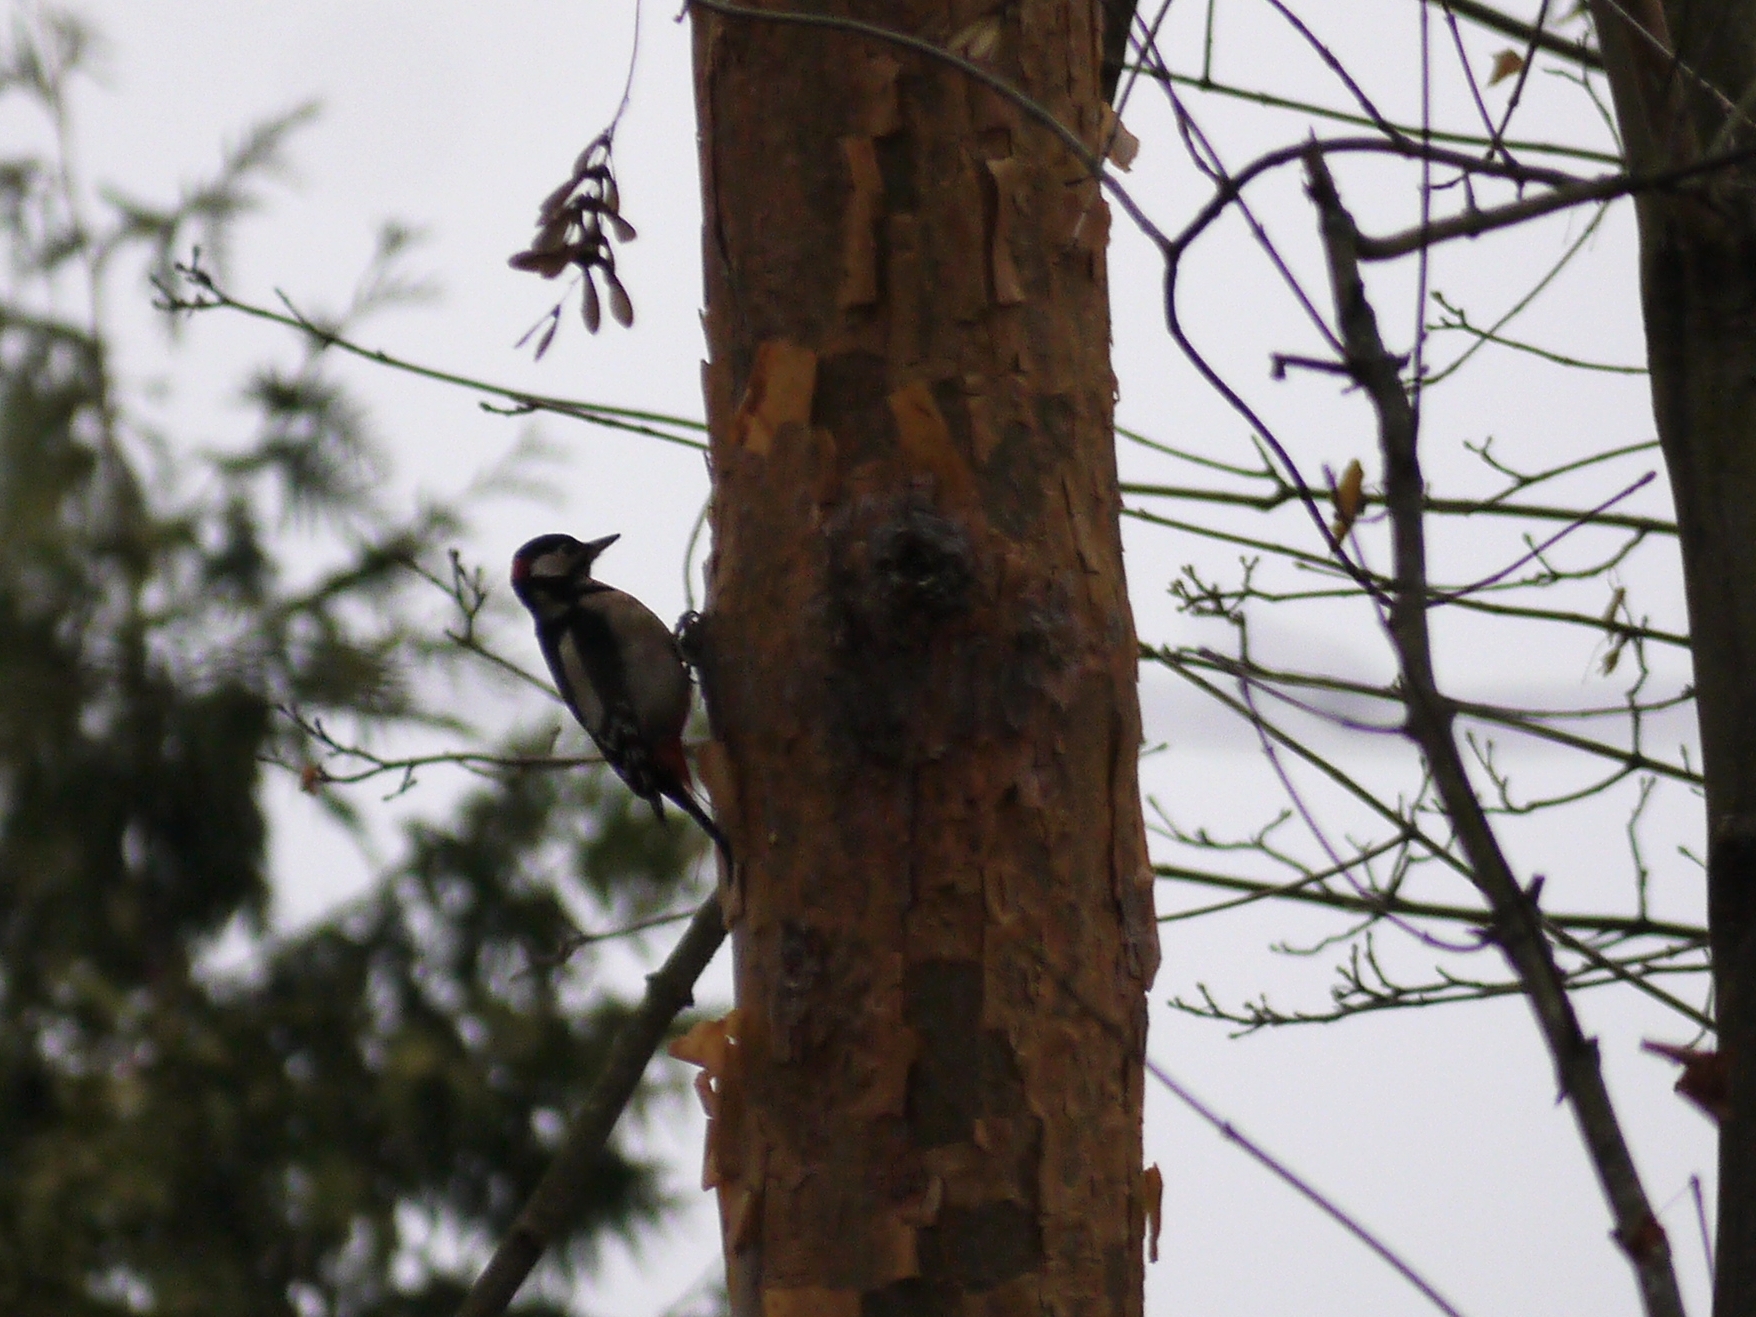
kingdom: Animalia
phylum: Chordata
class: Aves
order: Piciformes
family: Picidae
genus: Dendrocopos
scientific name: Dendrocopos major
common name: Great spotted woodpecker
